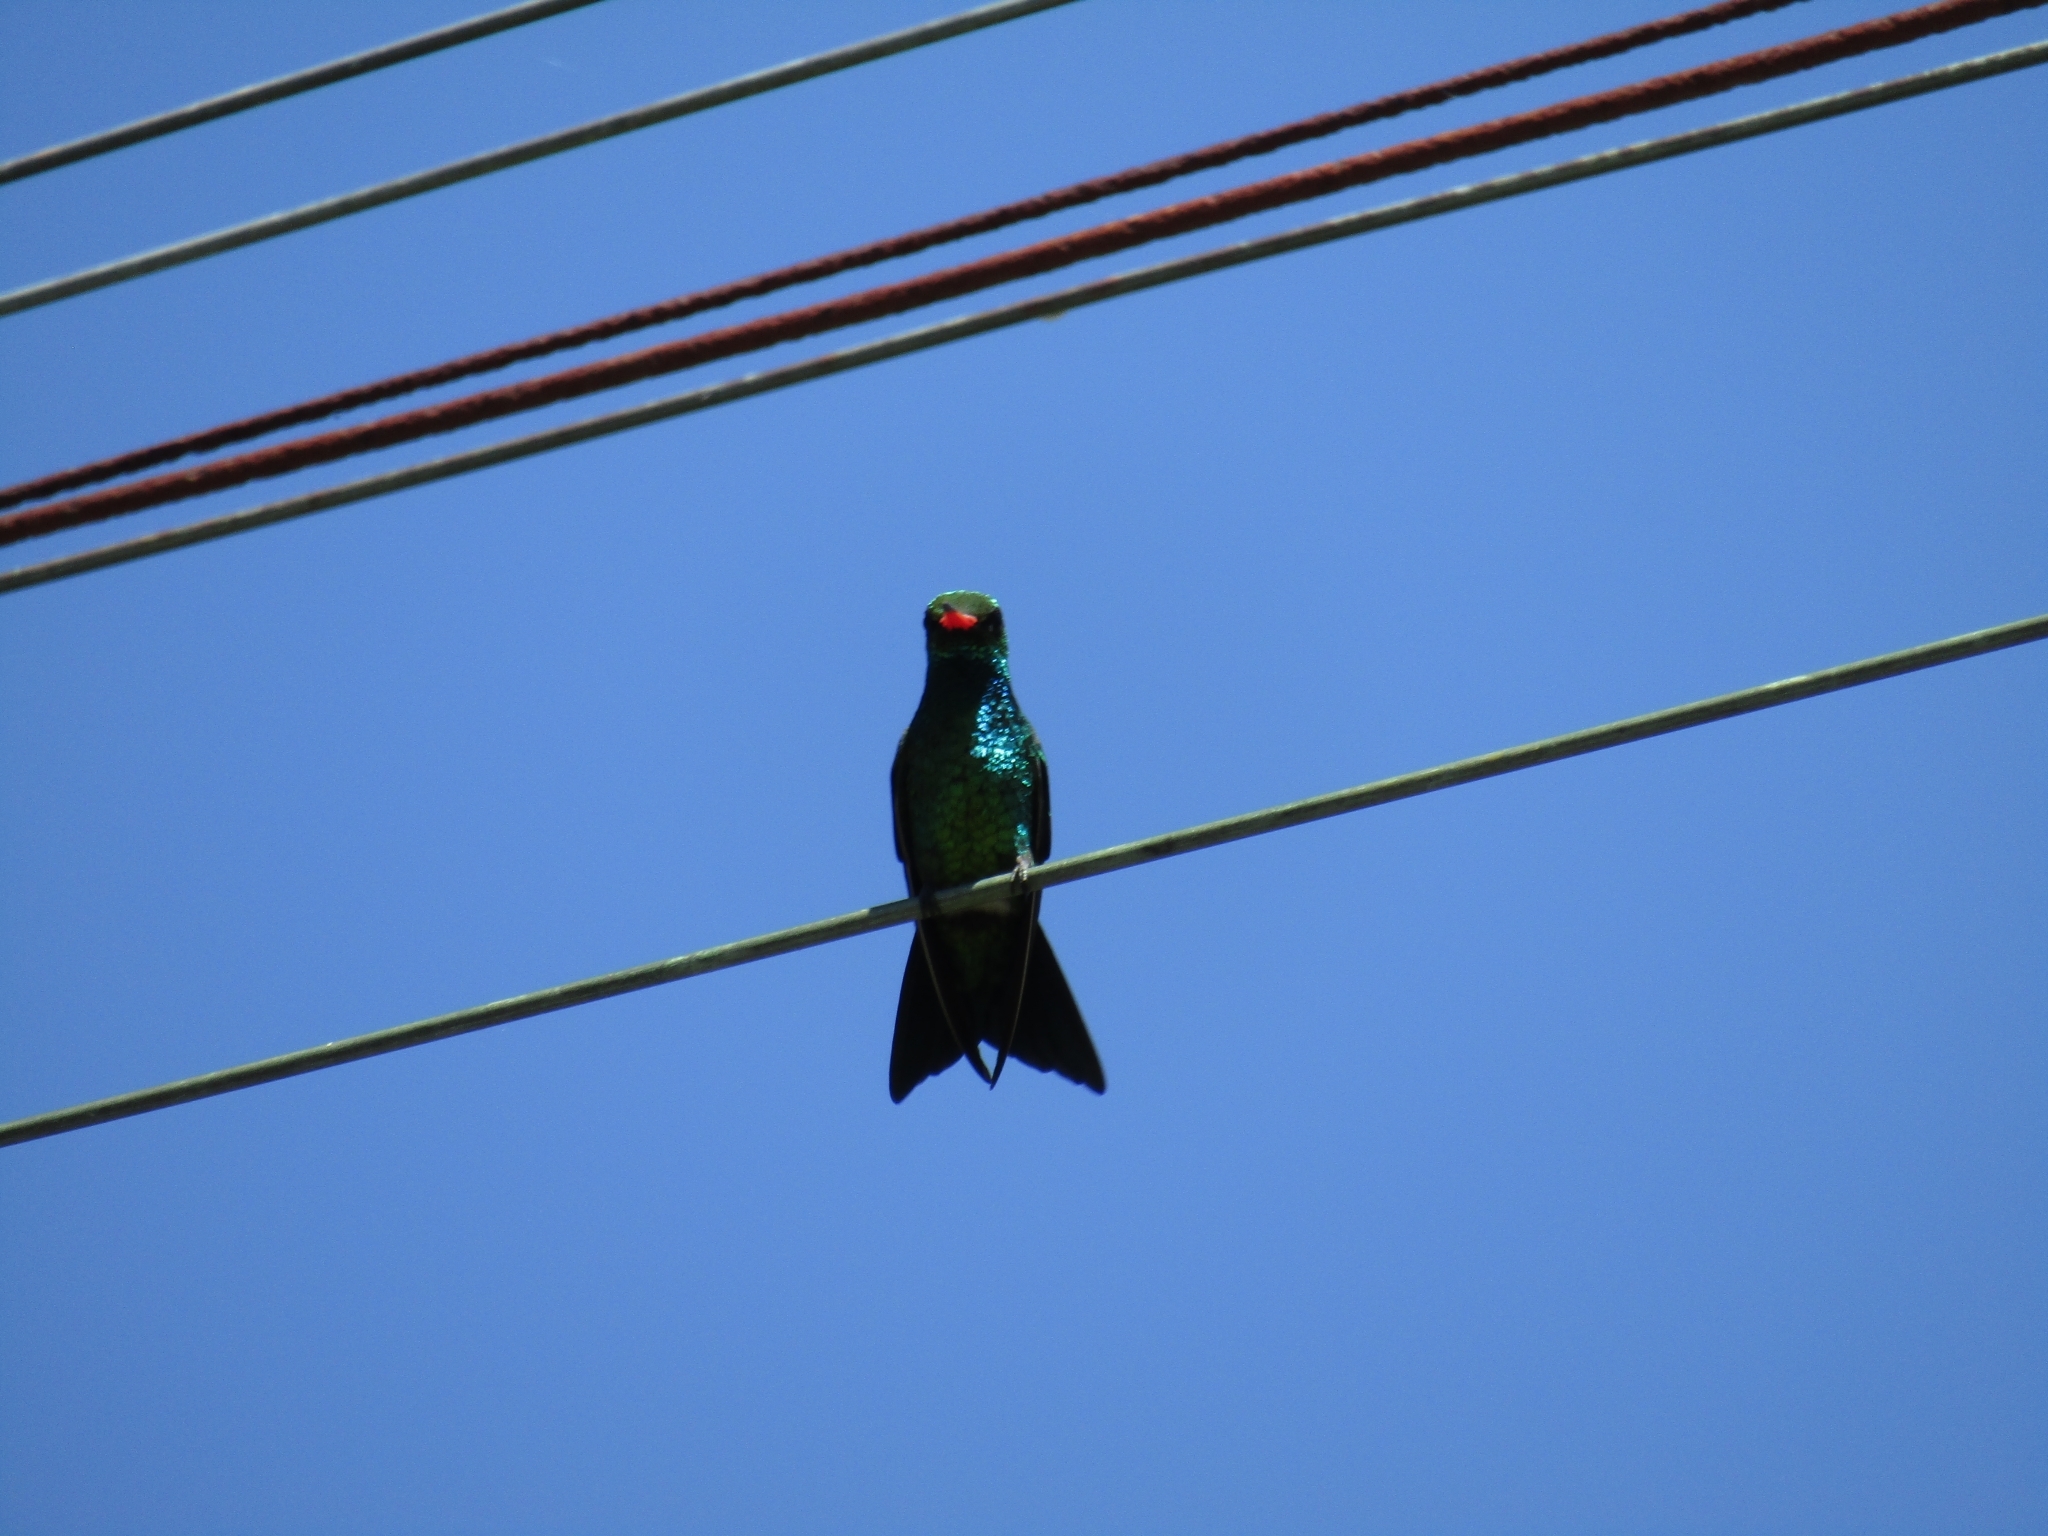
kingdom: Animalia
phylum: Chordata
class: Aves
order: Apodiformes
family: Trochilidae
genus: Chlorostilbon
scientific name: Chlorostilbon lucidus
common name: Glittering-bellied emerald
